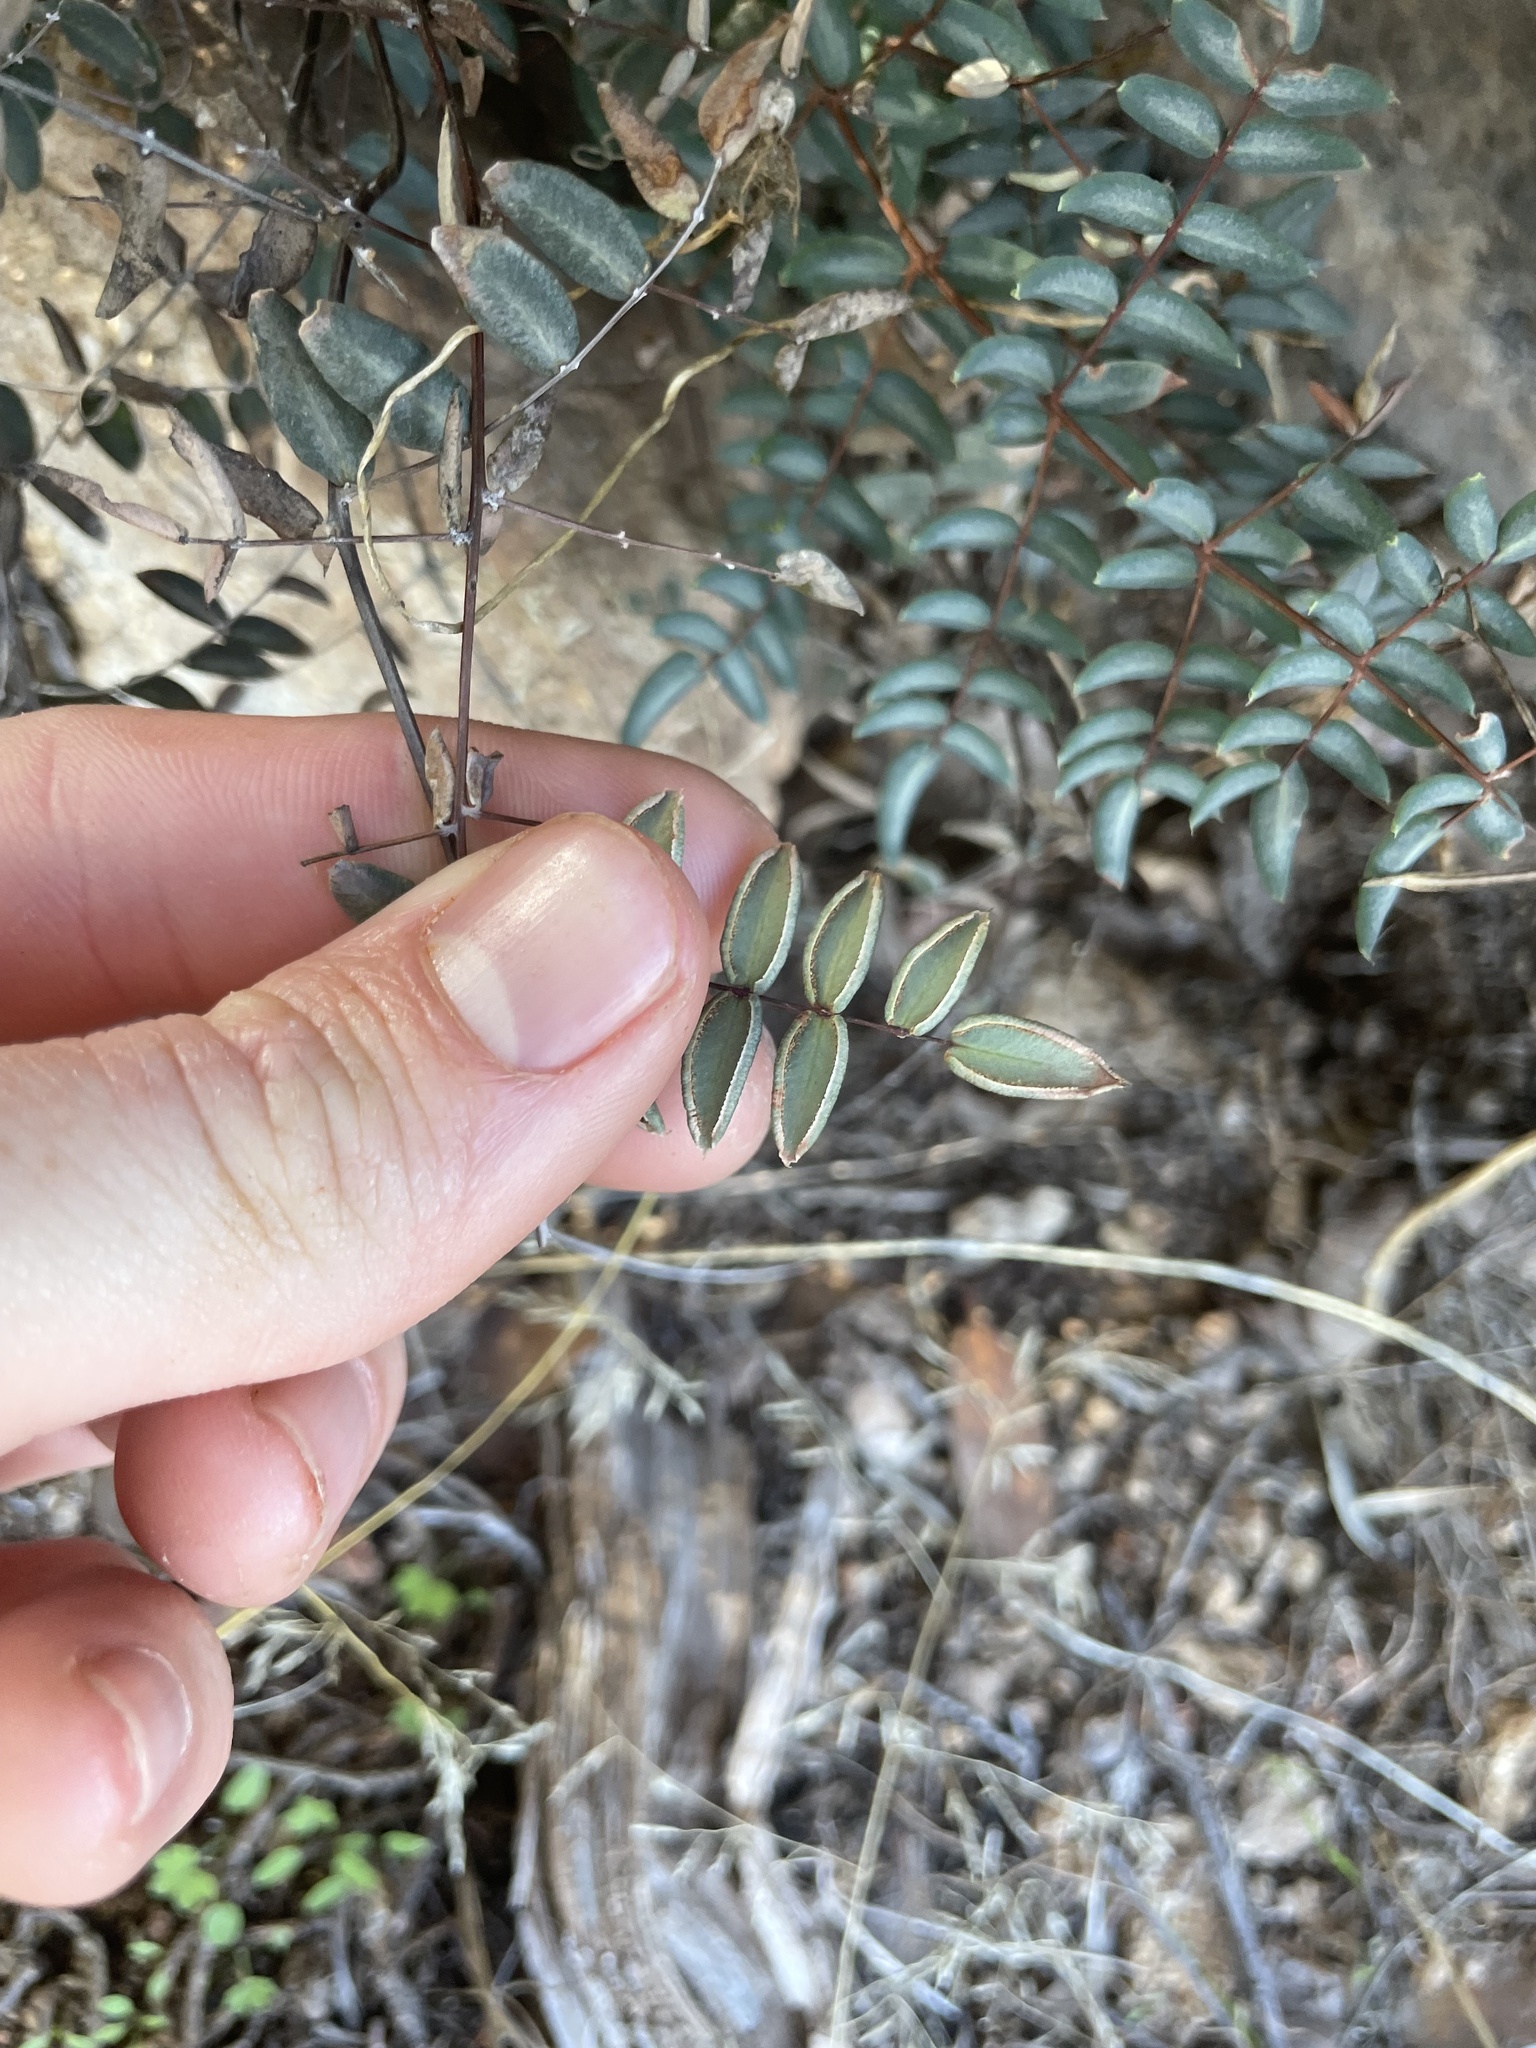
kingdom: Plantae
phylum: Tracheophyta
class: Polypodiopsida
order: Polypodiales
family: Pteridaceae
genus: Pellaea
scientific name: Pellaea truncata
